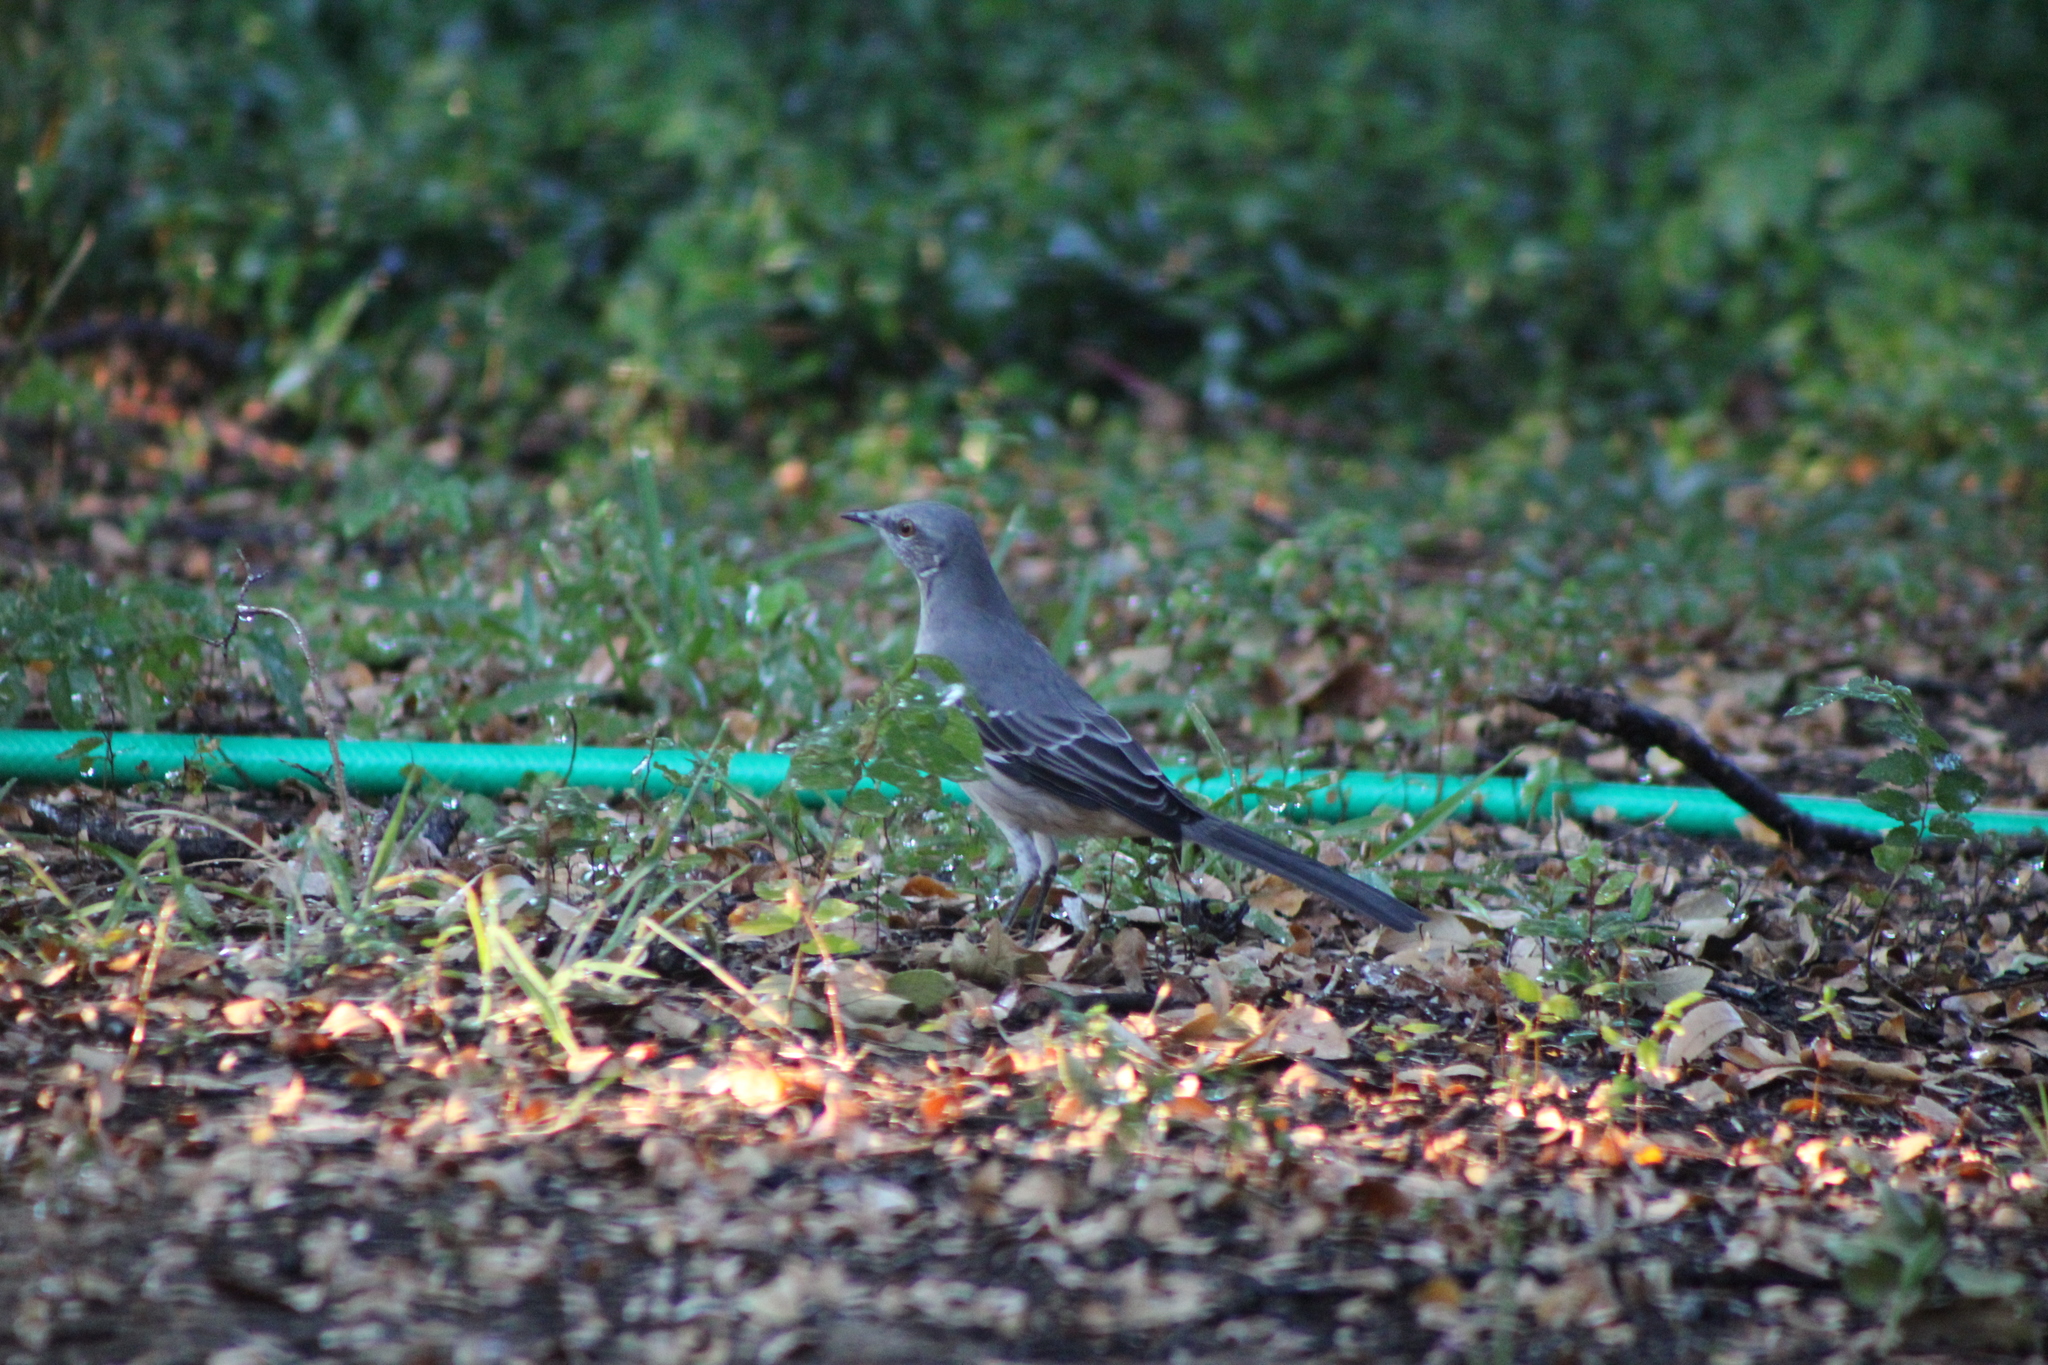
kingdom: Animalia
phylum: Chordata
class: Aves
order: Passeriformes
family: Mimidae
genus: Mimus
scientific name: Mimus polyglottos
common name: Northern mockingbird
